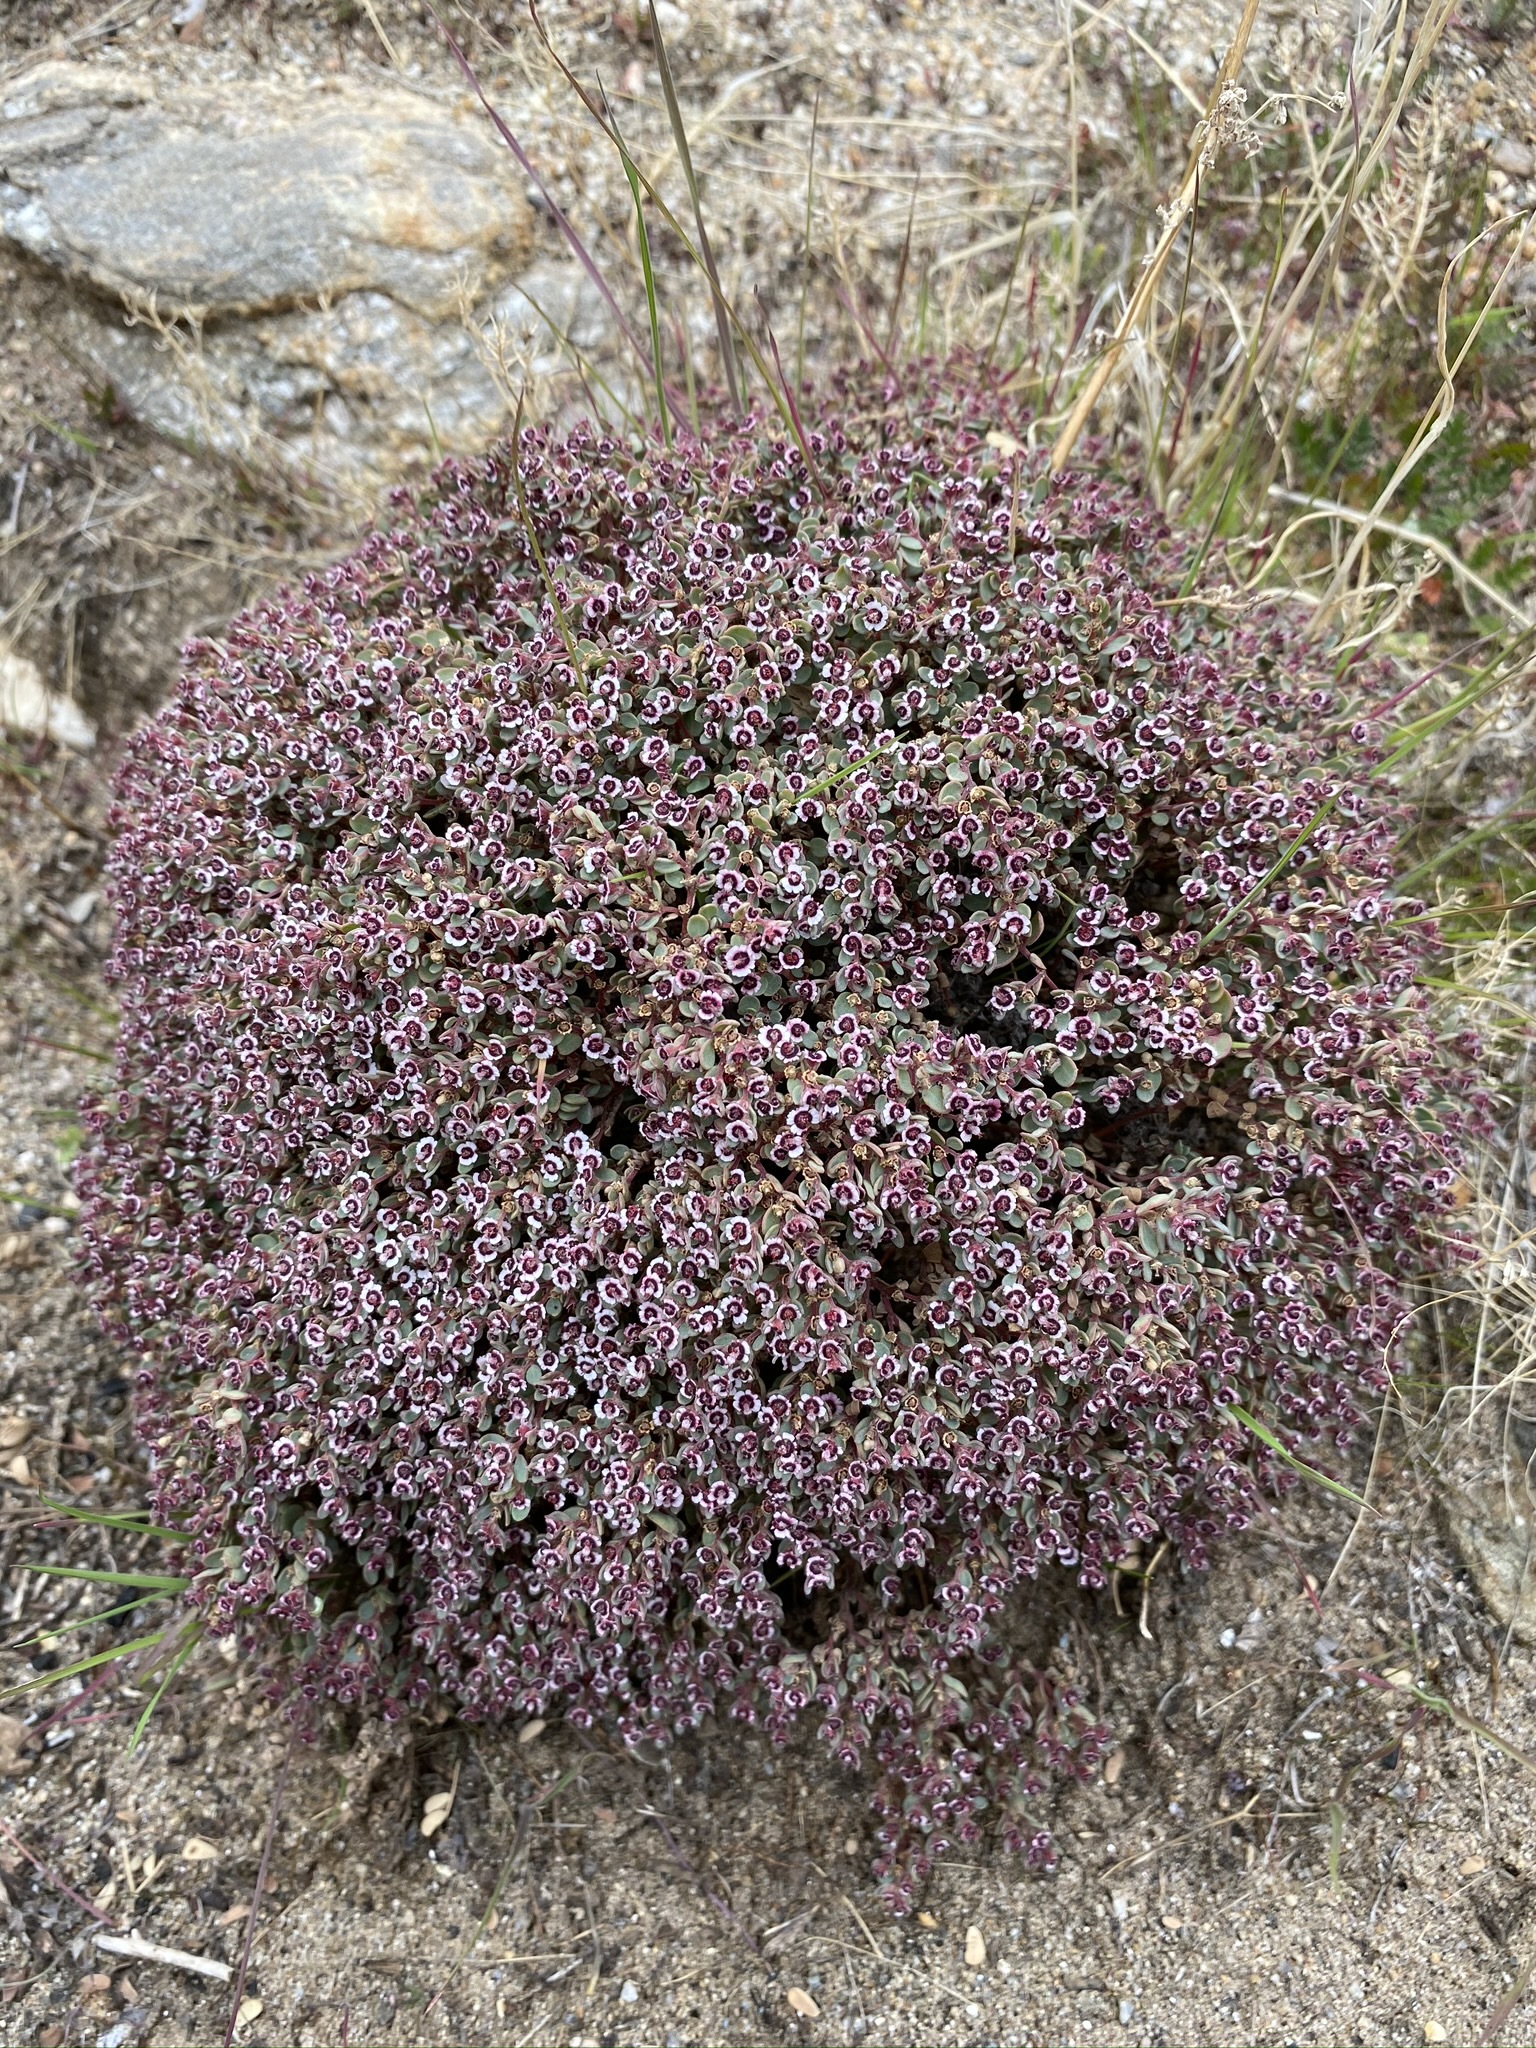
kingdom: Plantae
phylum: Tracheophyta
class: Magnoliopsida
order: Malpighiales
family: Euphorbiaceae
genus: Euphorbia
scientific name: Euphorbia melanadenia
